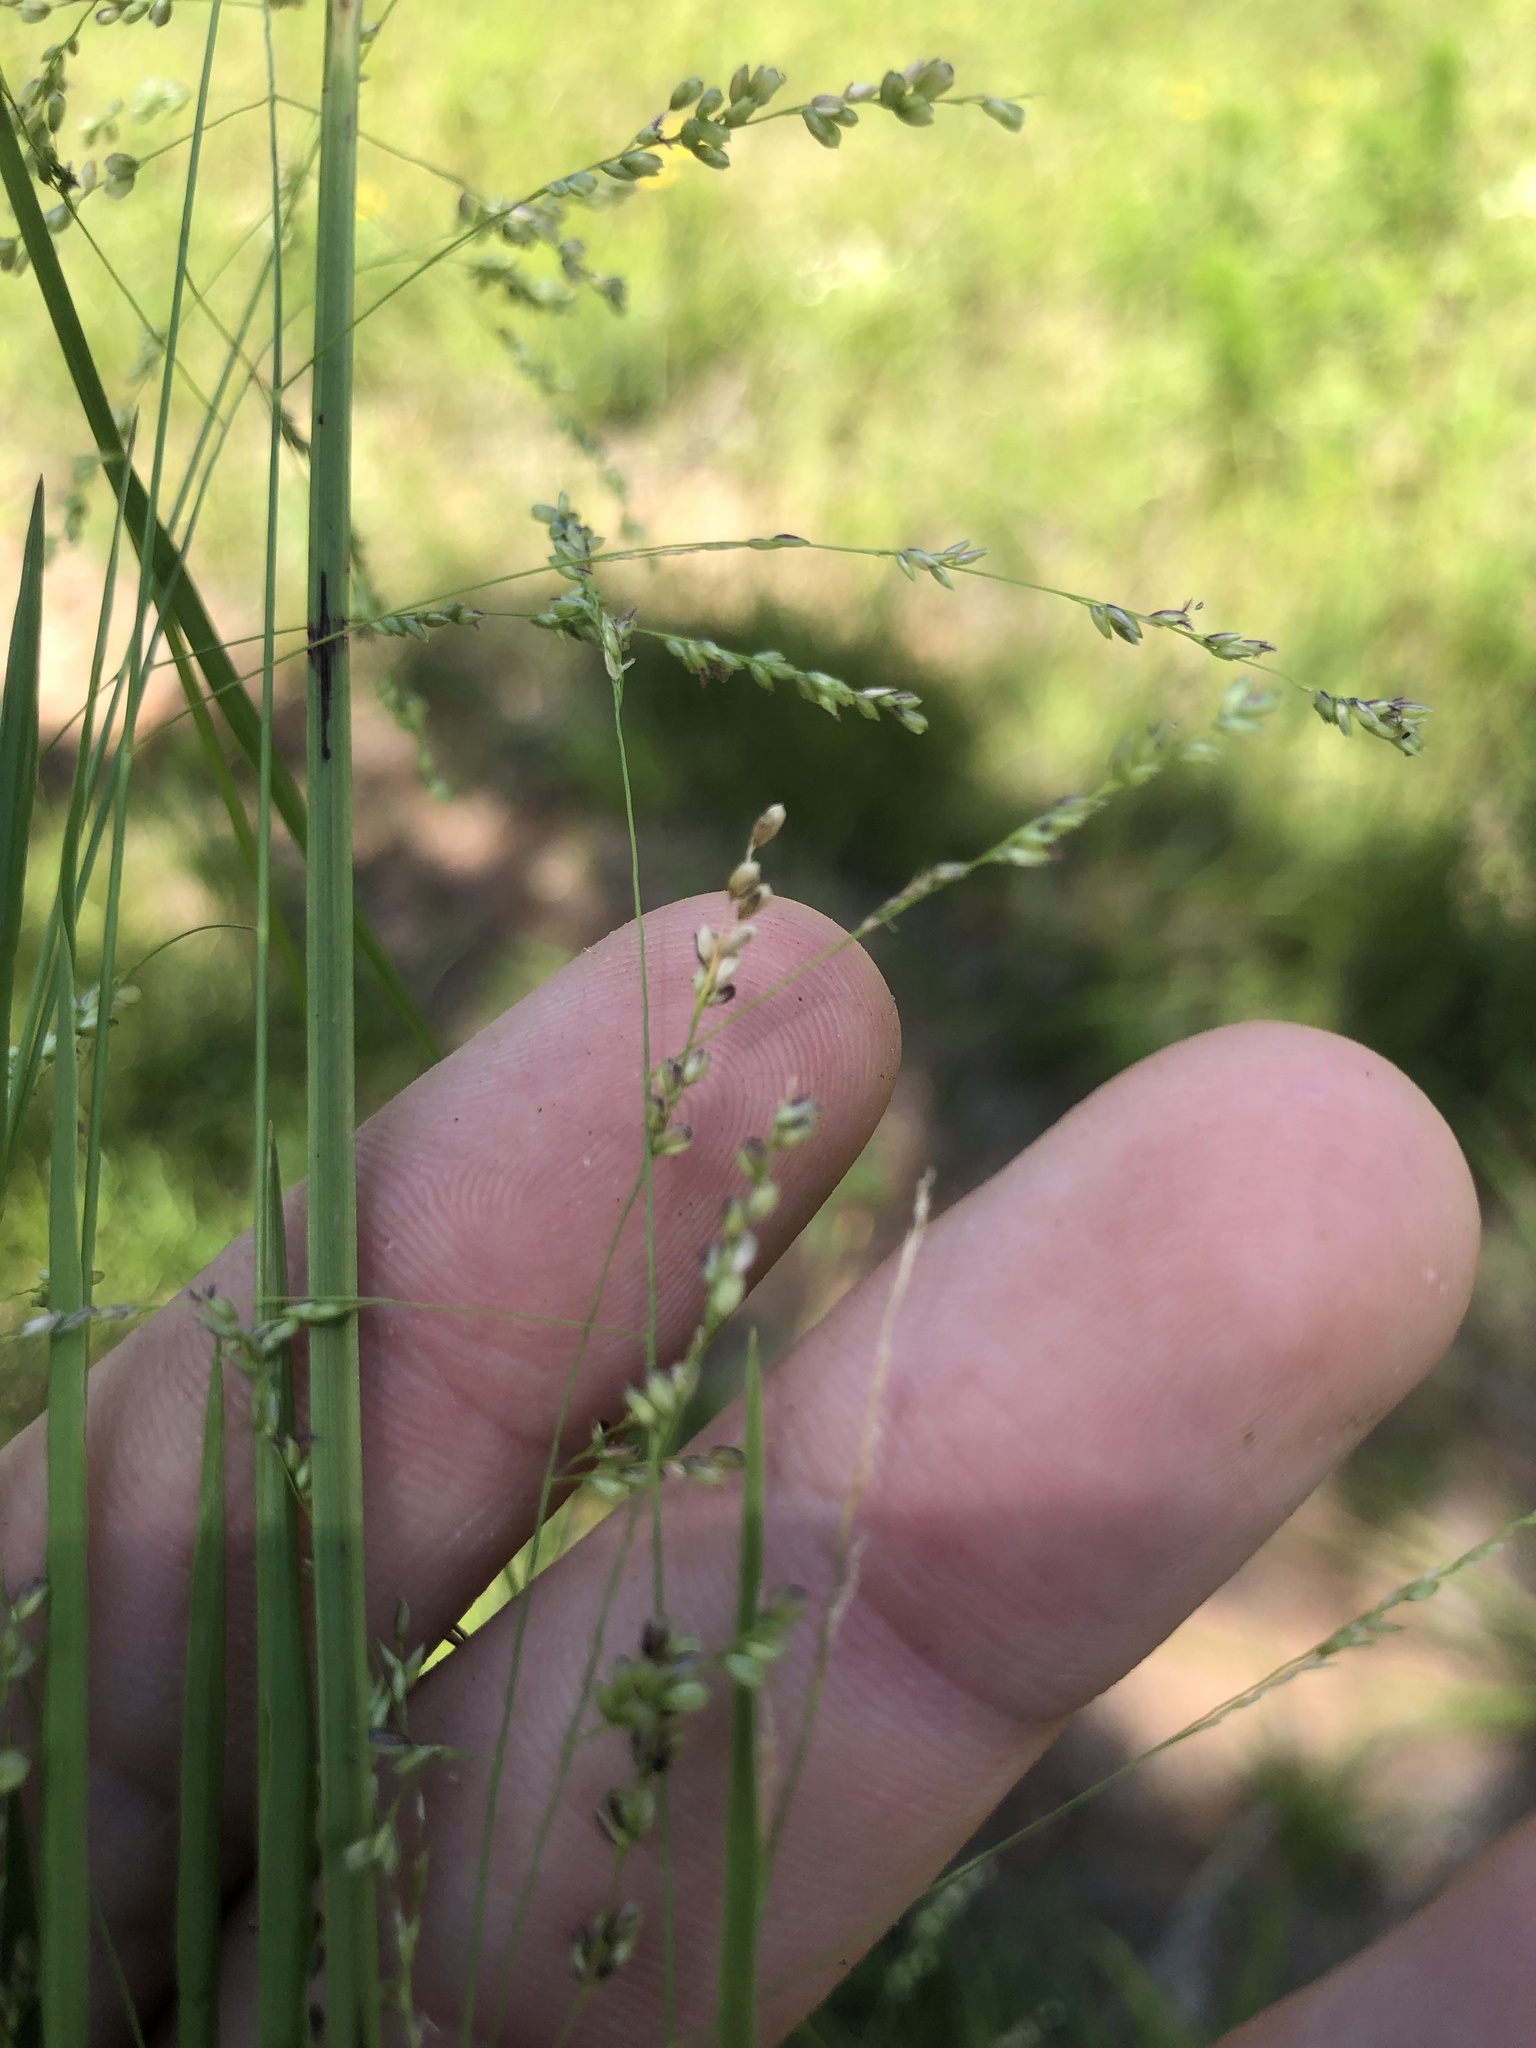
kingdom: Plantae
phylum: Tracheophyta
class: Liliopsida
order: Poales
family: Poaceae
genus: Steinchisma
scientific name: Steinchisma hians
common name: Gaping panic grass
